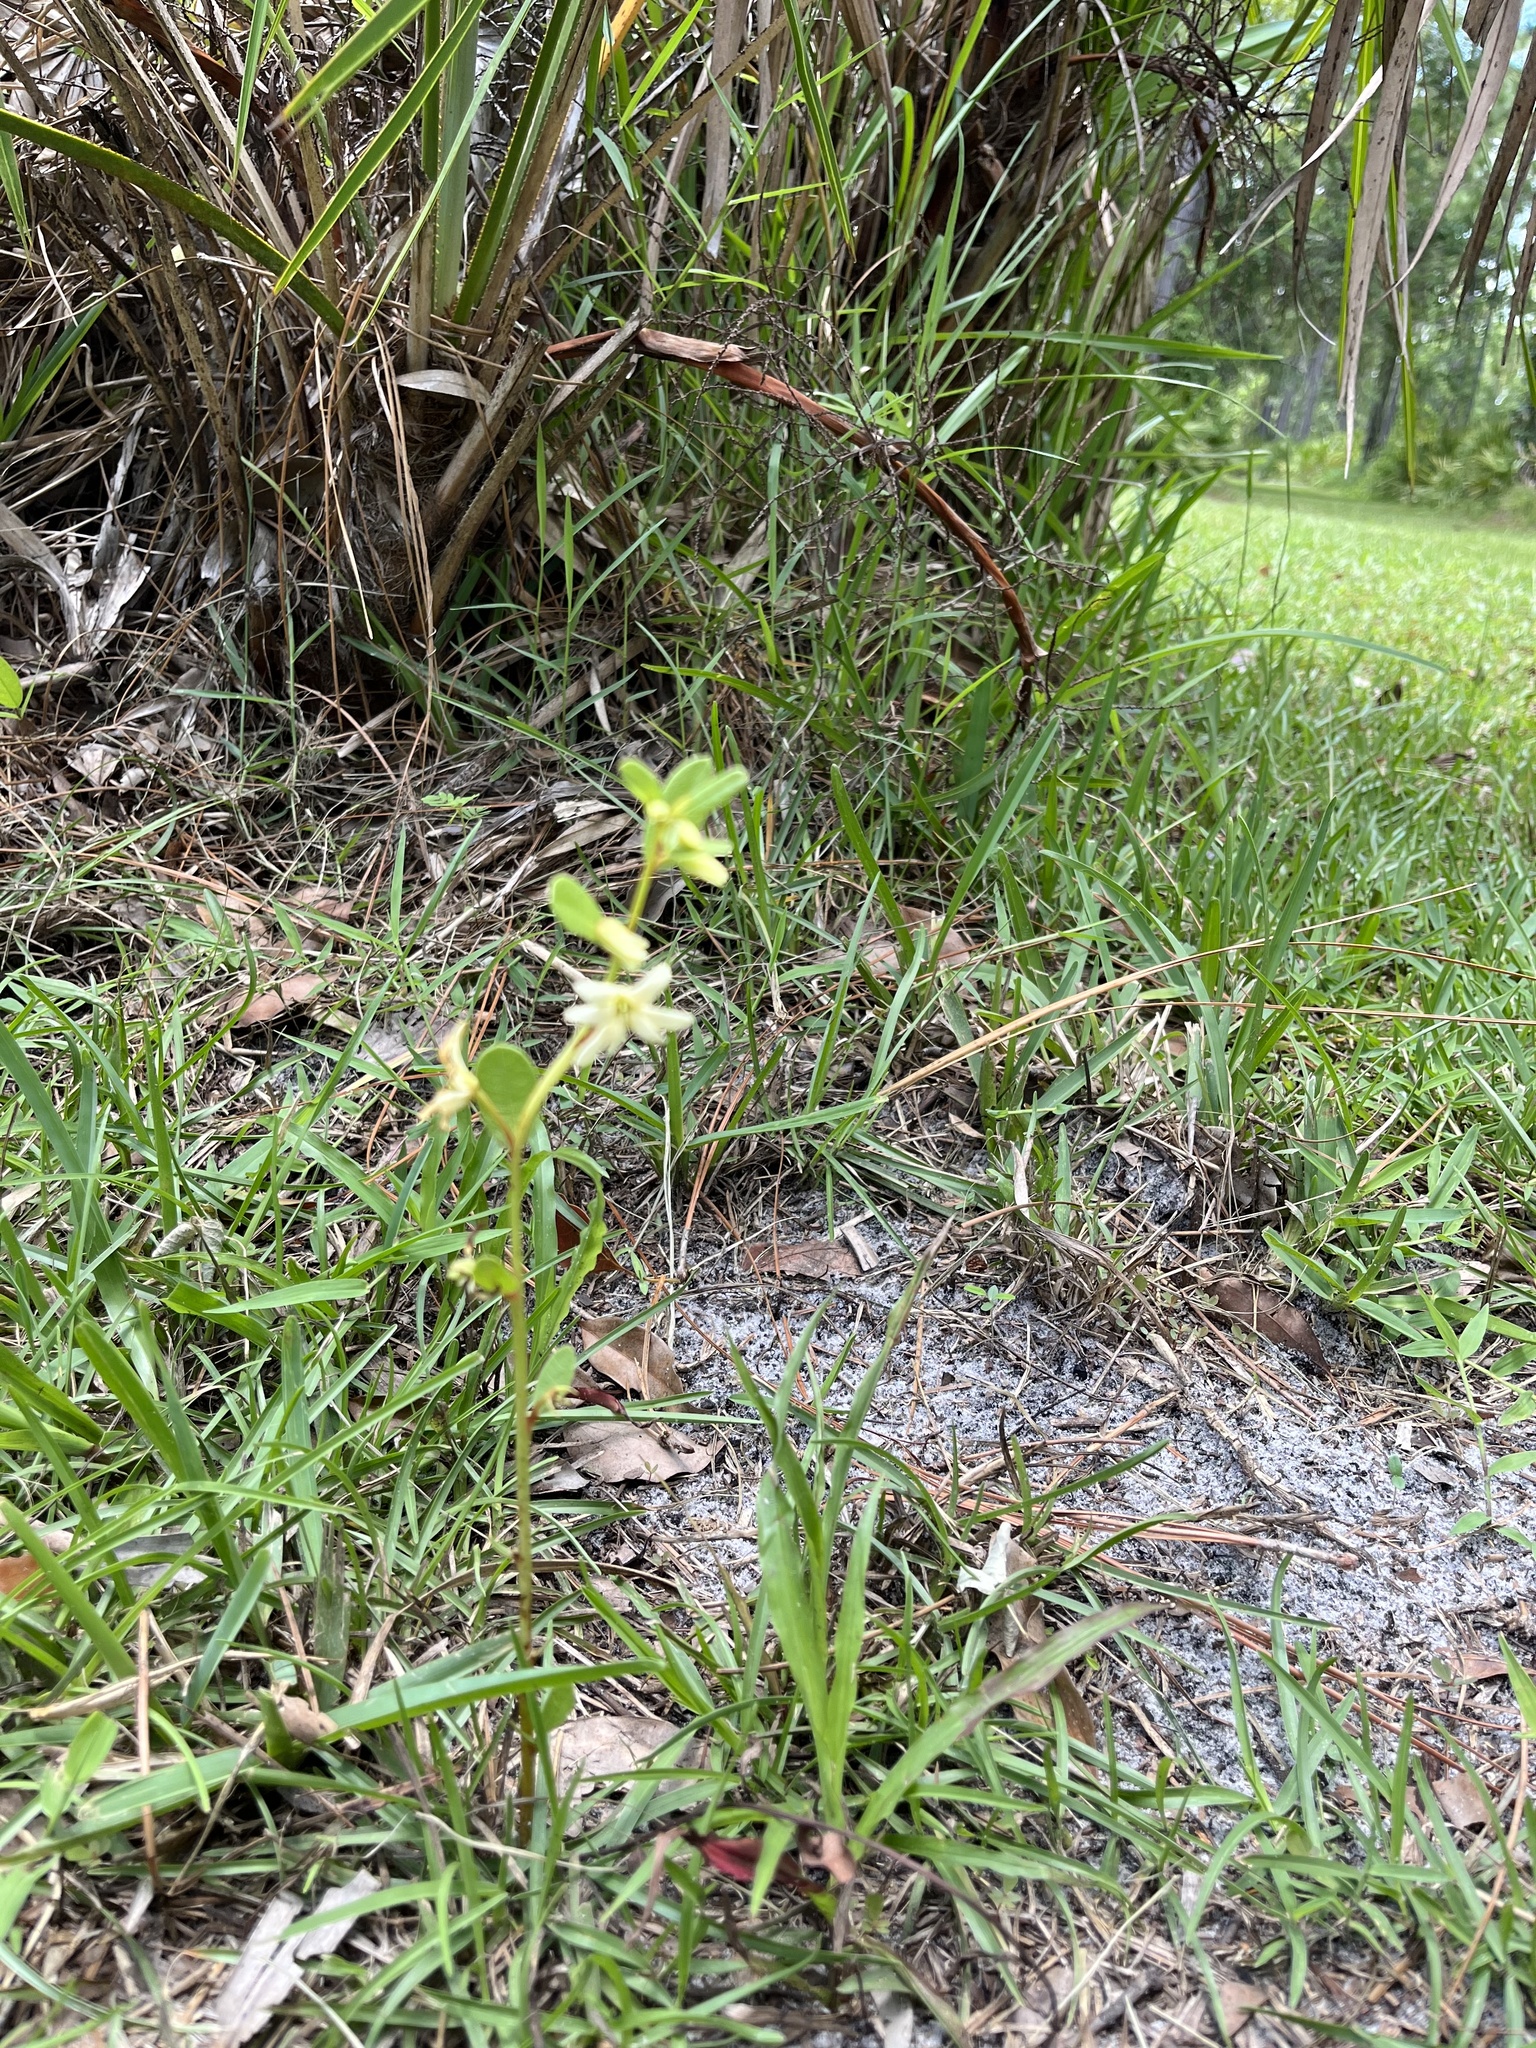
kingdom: Plantae
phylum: Tracheophyta
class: Magnoliopsida
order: Magnoliales
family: Annonaceae
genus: Asimina
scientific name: Asimina pulchella
